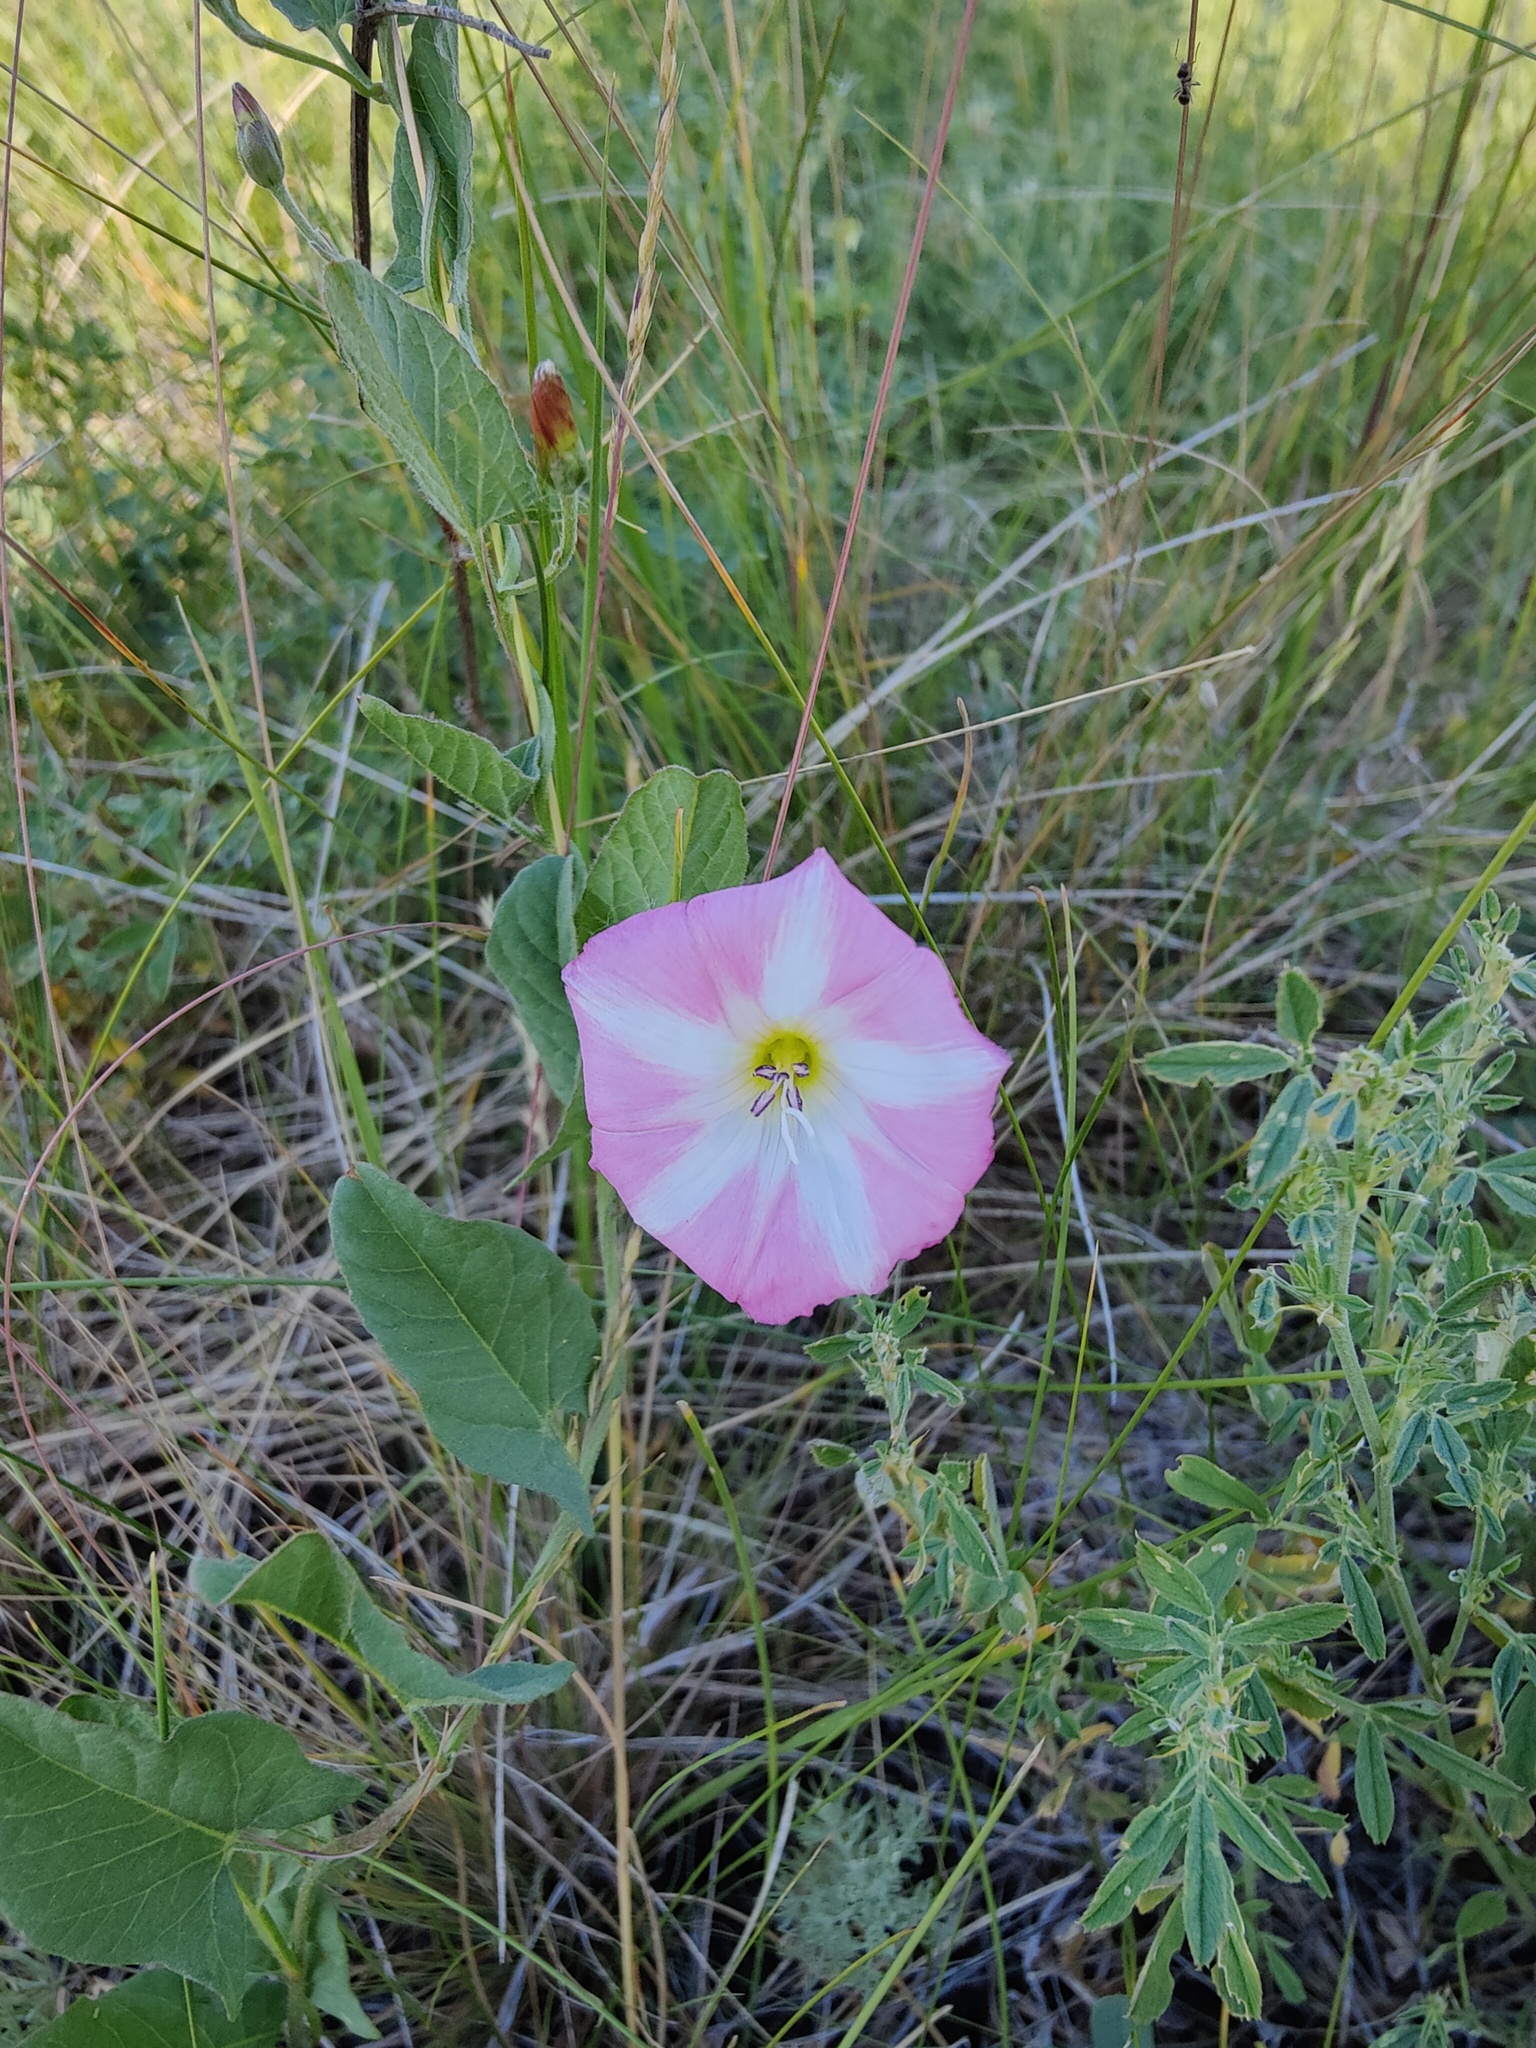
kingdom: Plantae
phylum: Tracheophyta
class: Magnoliopsida
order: Solanales
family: Convolvulaceae
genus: Convolvulus
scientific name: Convolvulus arvensis
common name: Field bindweed
